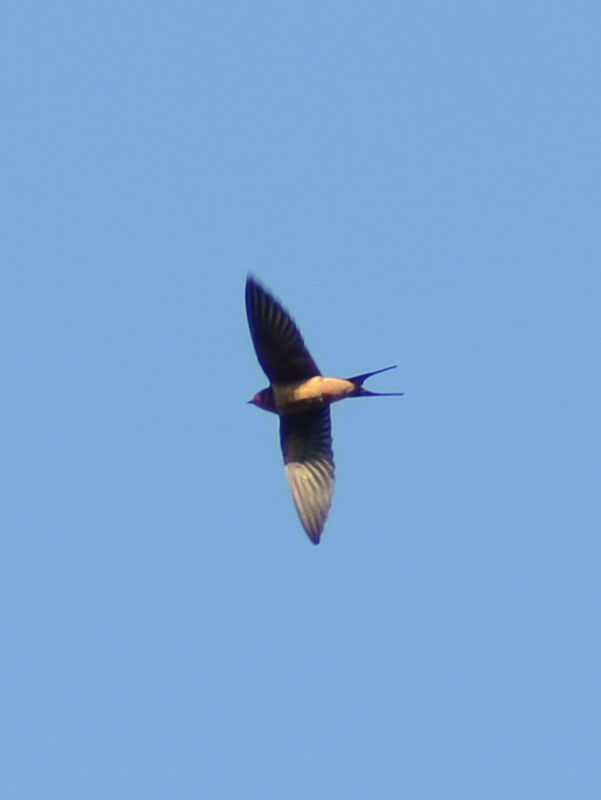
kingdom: Animalia
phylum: Chordata
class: Aves
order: Passeriformes
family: Hirundinidae
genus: Hirundo
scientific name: Hirundo rustica
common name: Barn swallow
